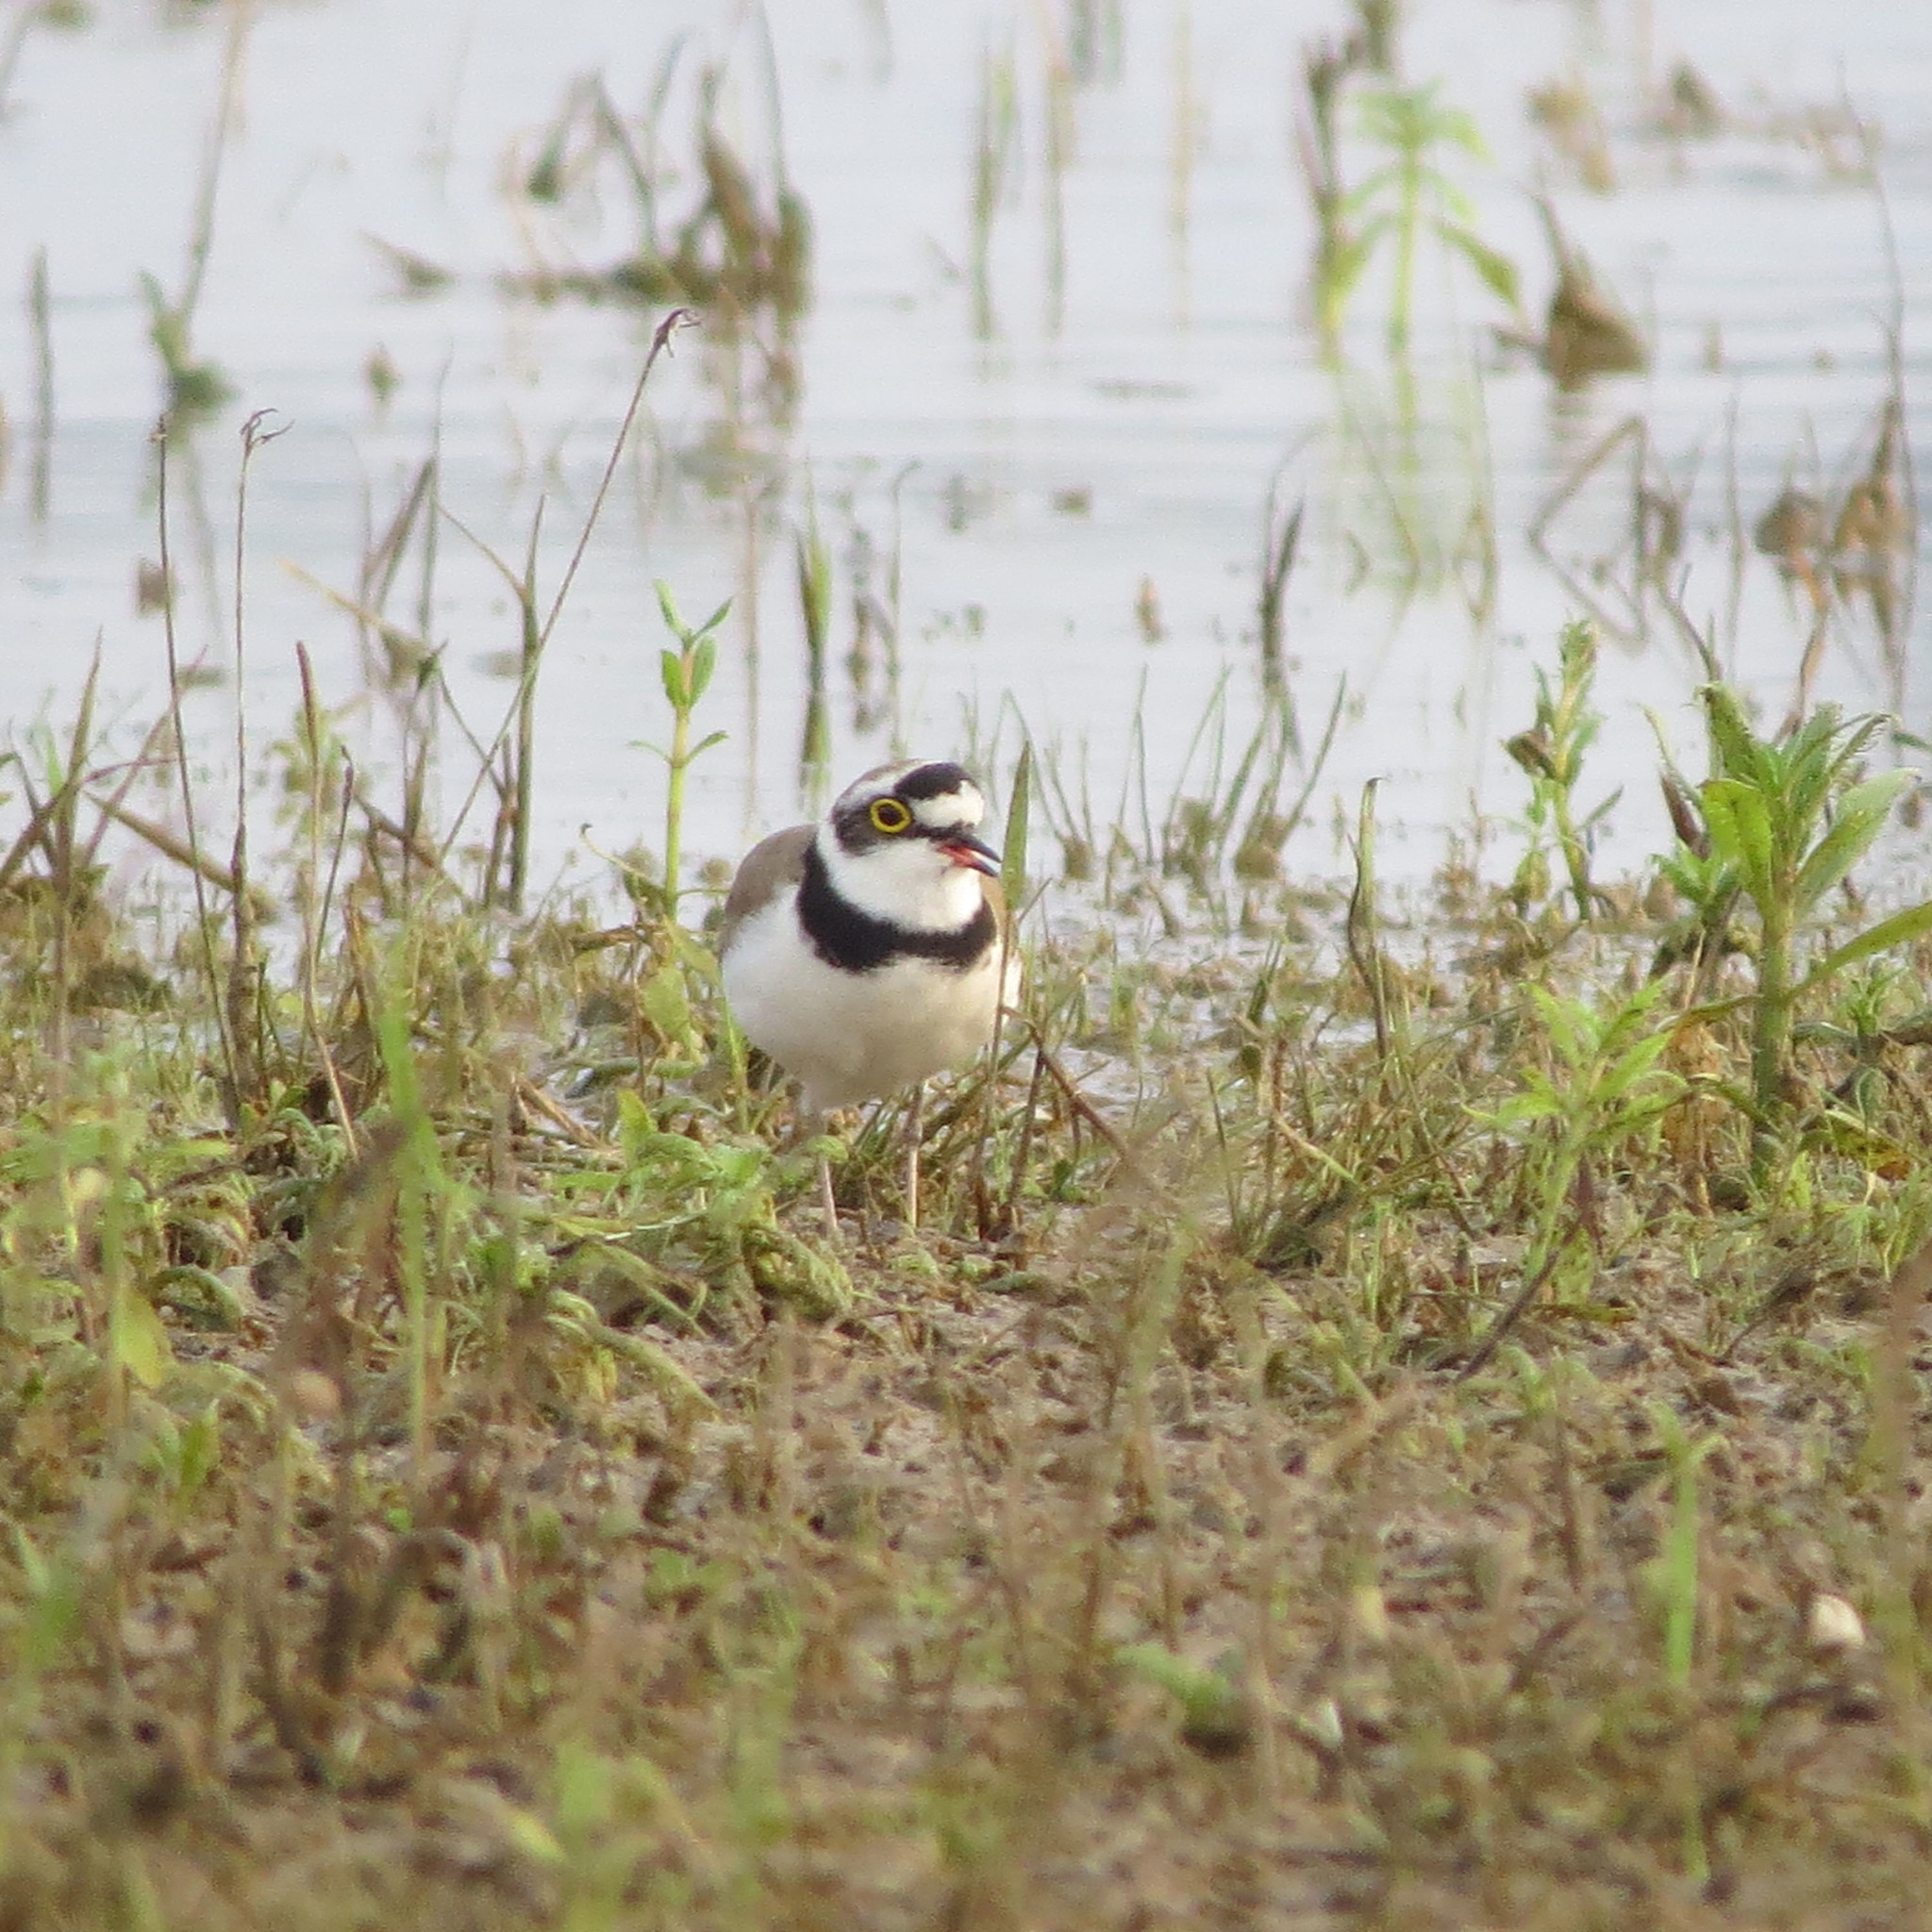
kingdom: Animalia
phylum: Chordata
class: Aves
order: Charadriiformes
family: Charadriidae
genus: Charadrius
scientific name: Charadrius dubius
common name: Little ringed plover
